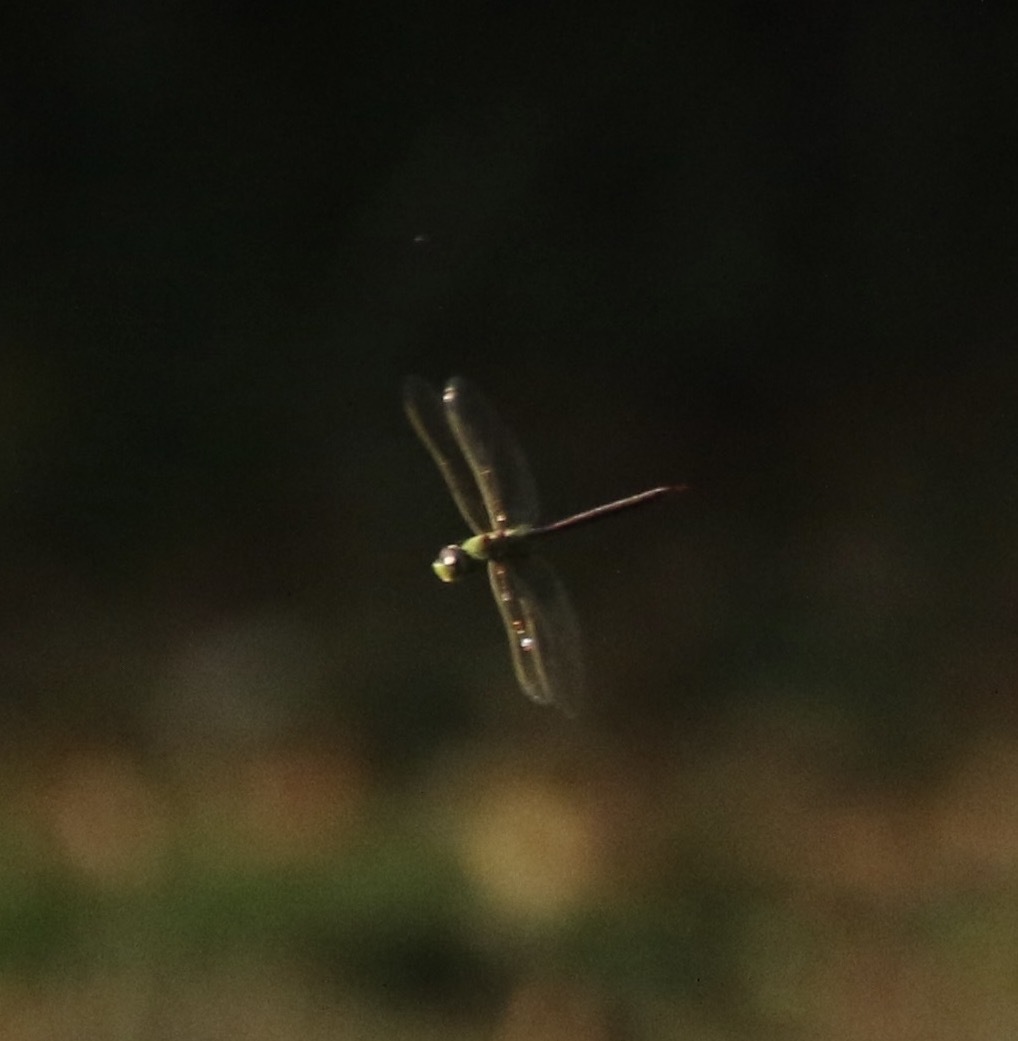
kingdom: Animalia
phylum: Arthropoda
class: Insecta
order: Odonata
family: Aeshnidae
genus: Anax
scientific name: Anax junius
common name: Common green darner
